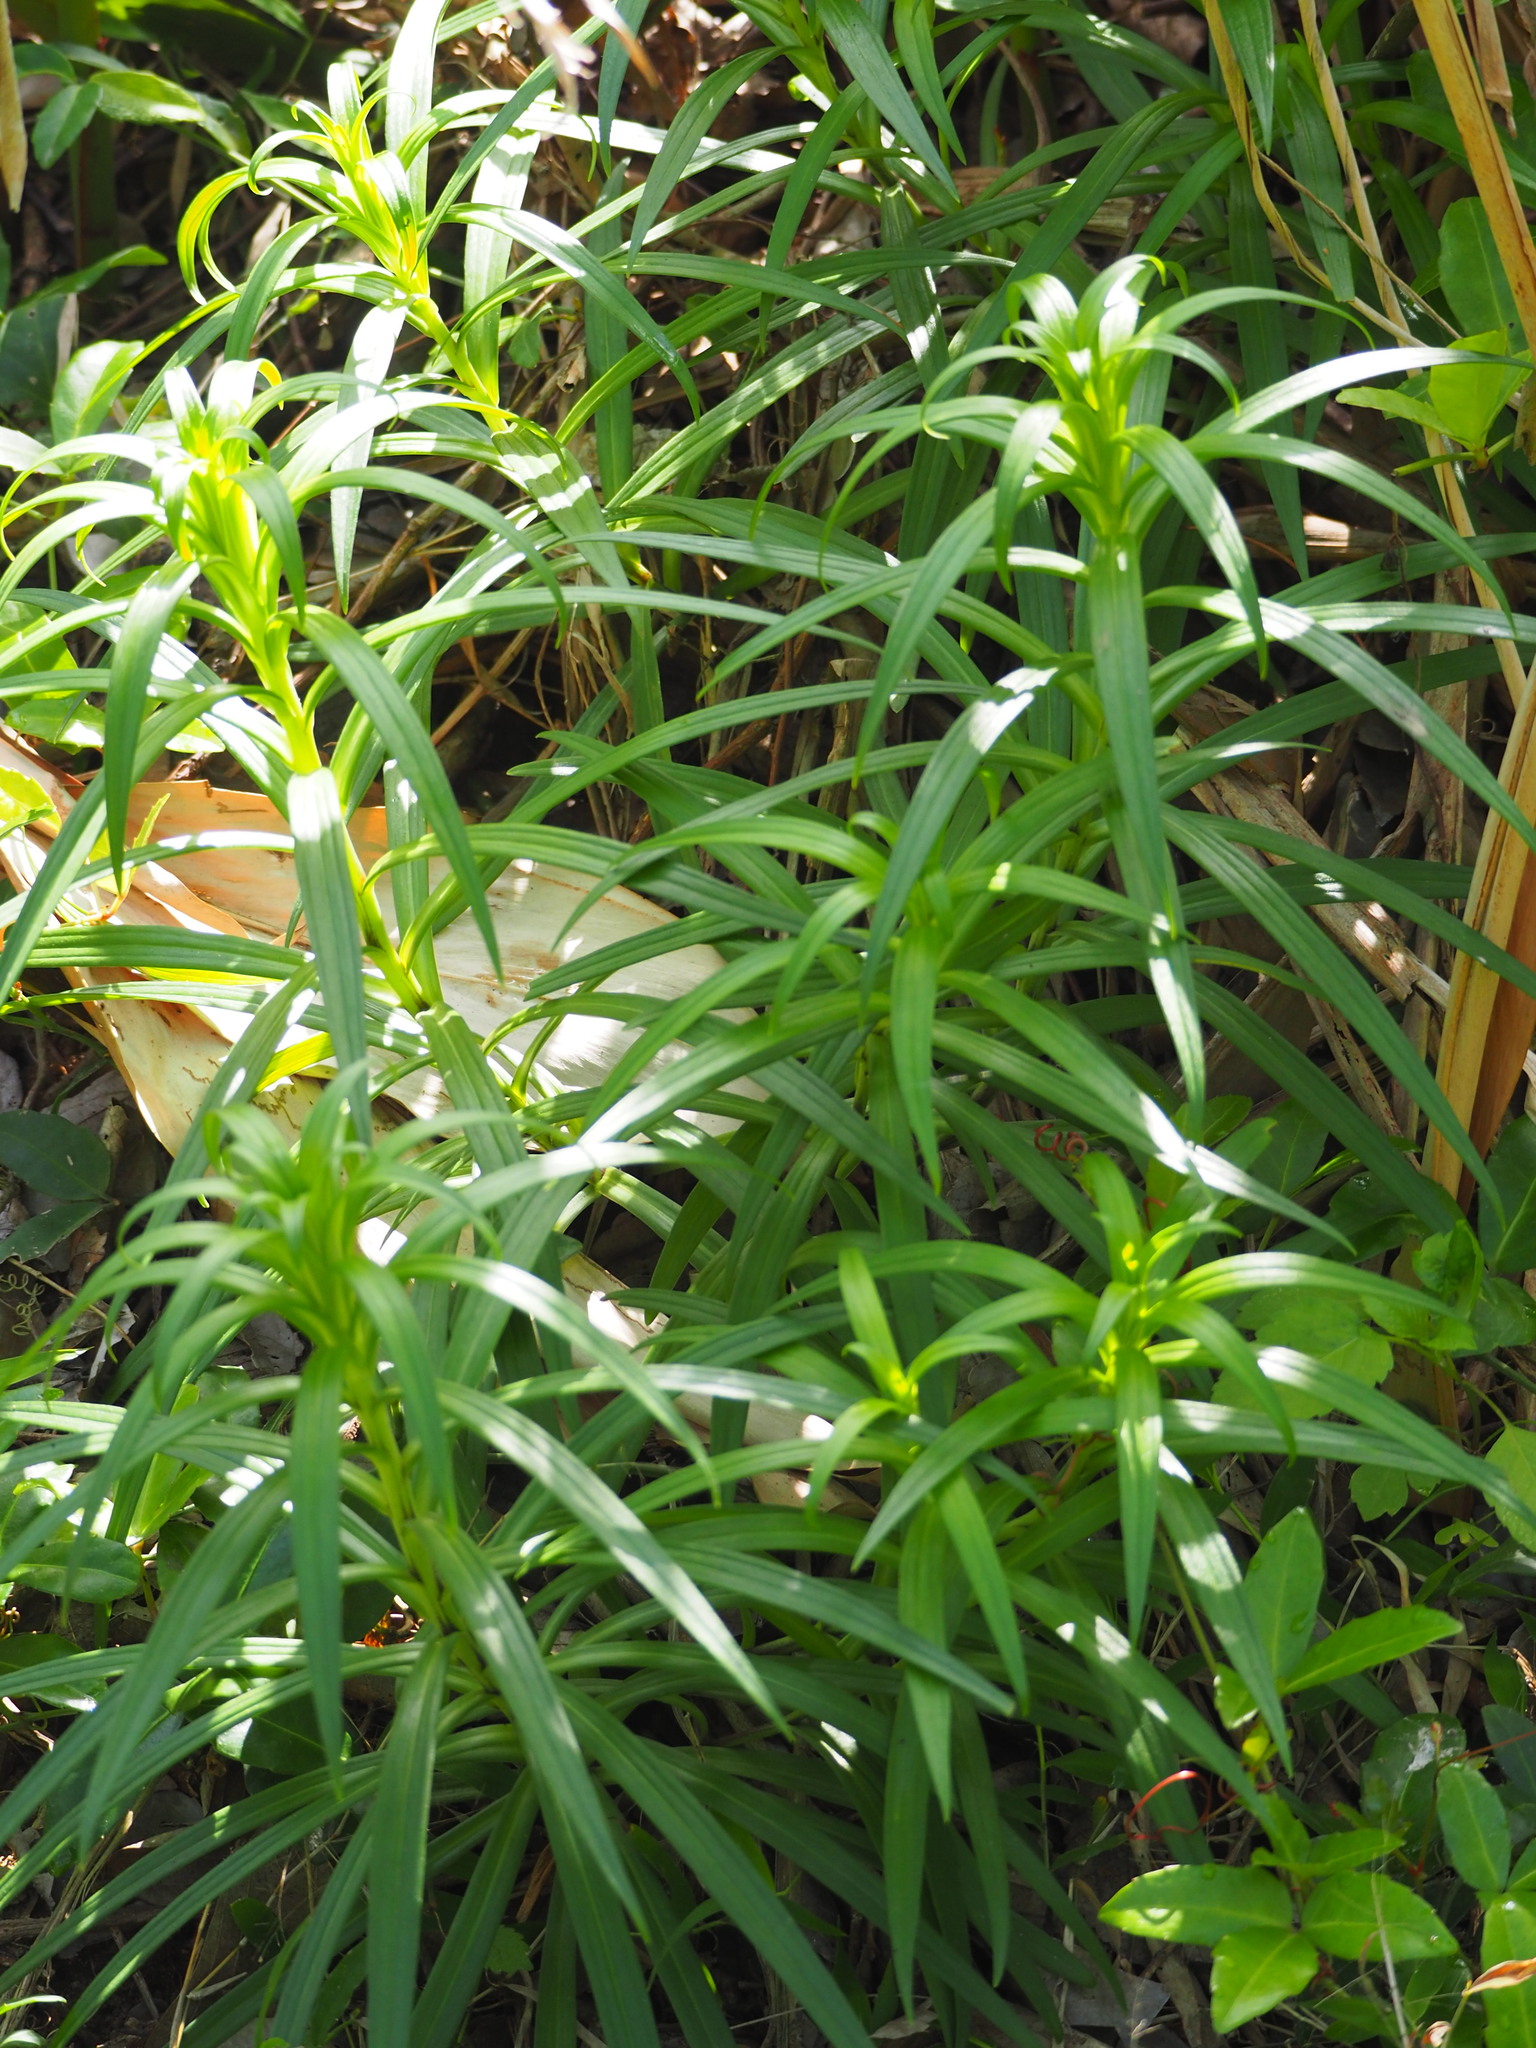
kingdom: Plantae
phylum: Tracheophyta
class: Liliopsida
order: Liliales
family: Liliaceae
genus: Lilium
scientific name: Lilium formosanum
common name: Formosa lily
